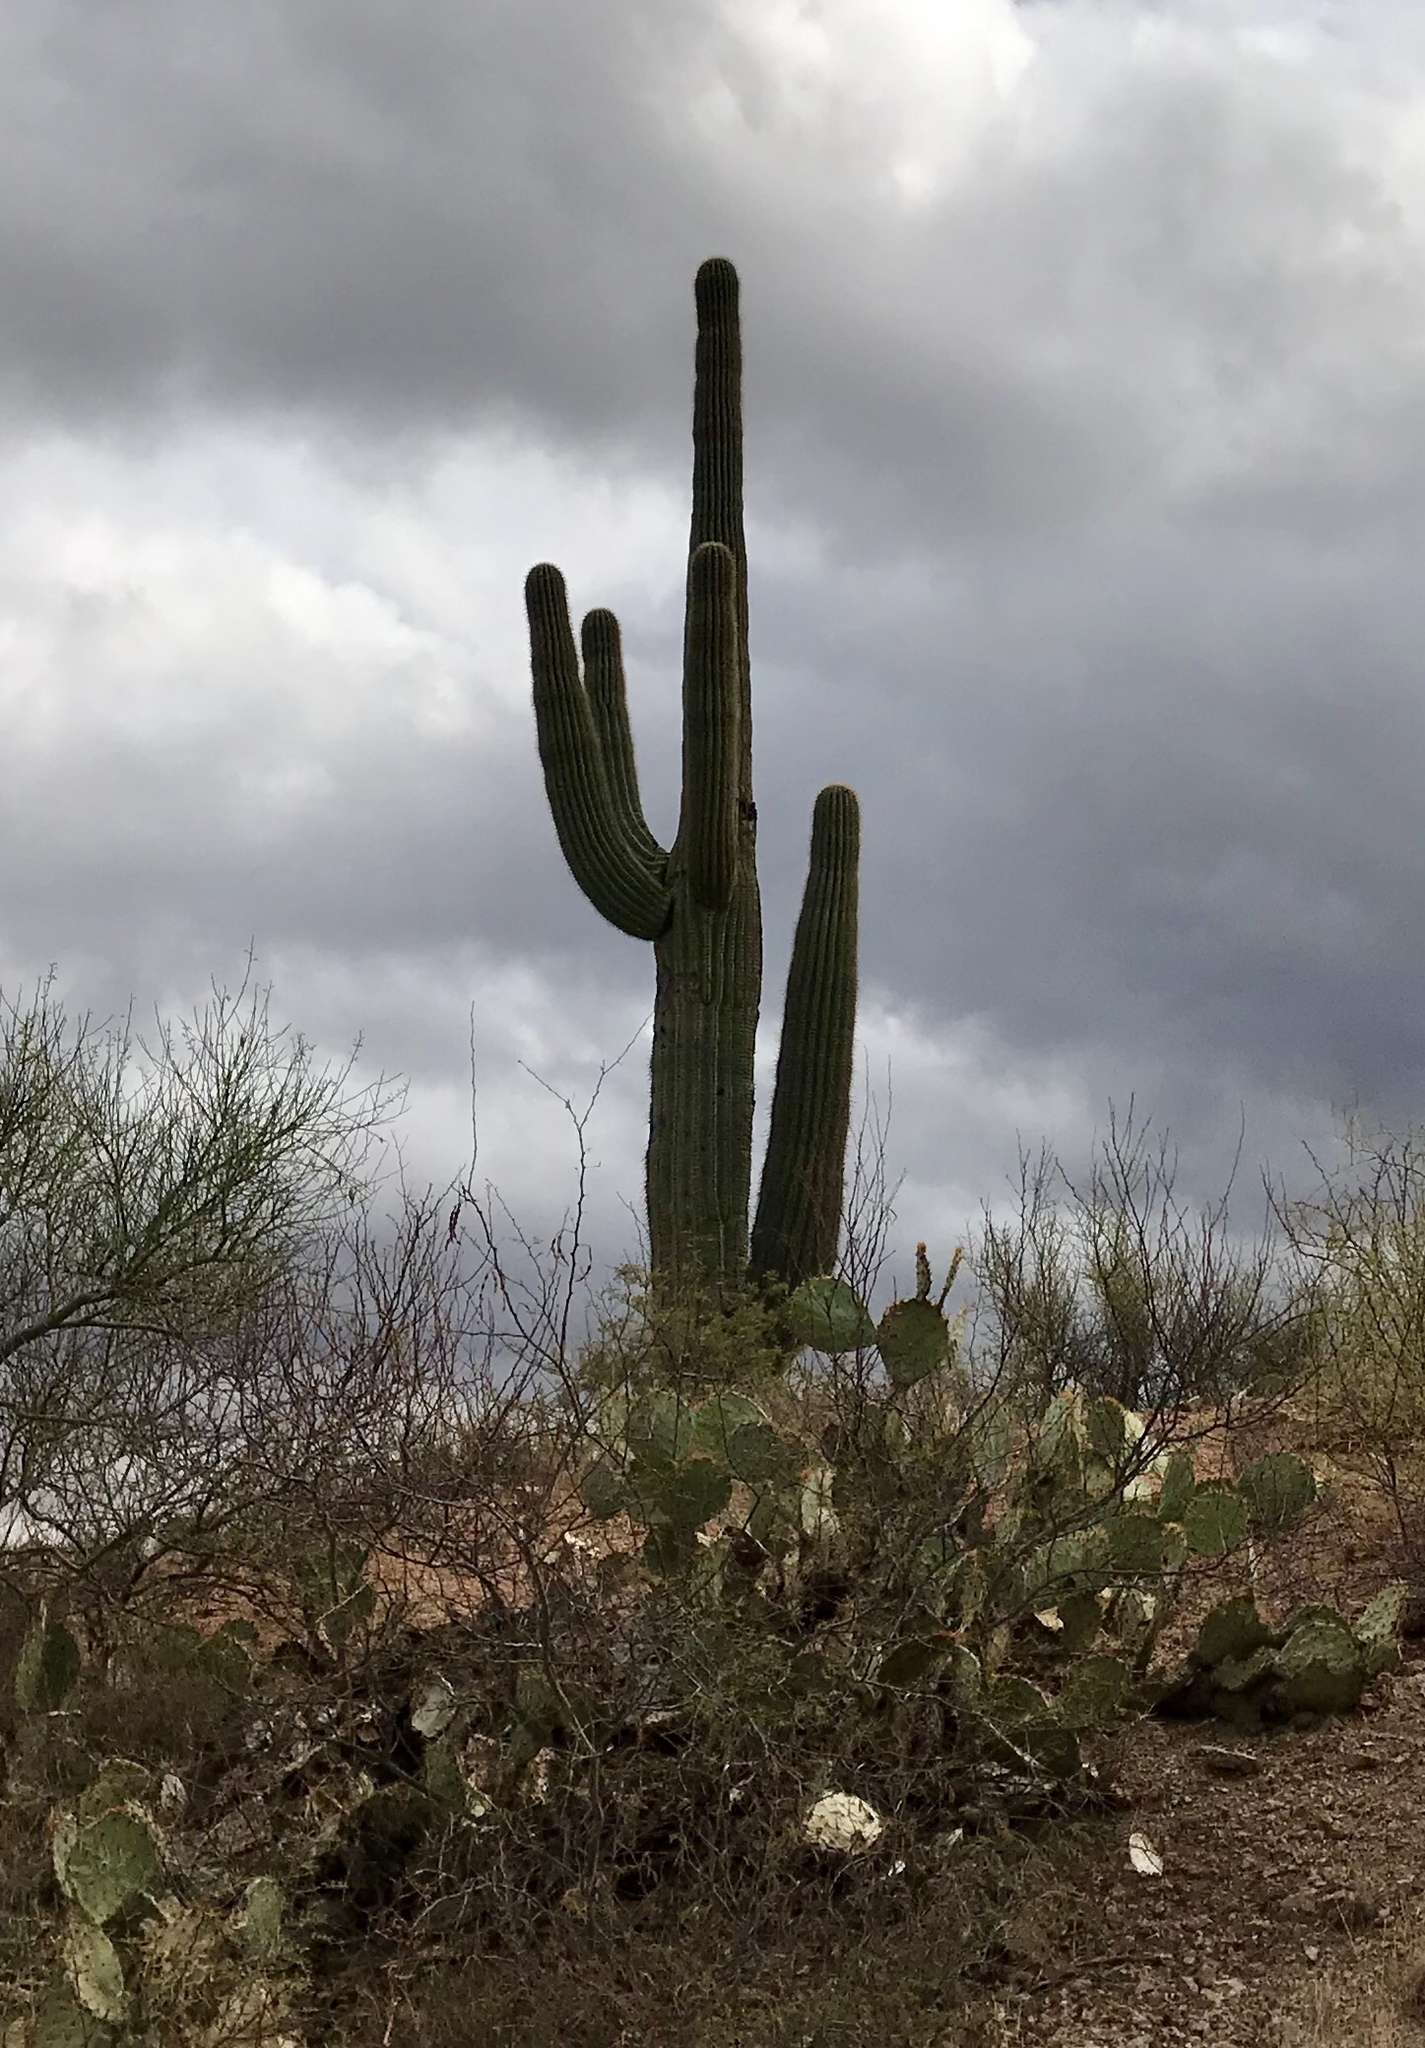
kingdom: Plantae
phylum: Tracheophyta
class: Magnoliopsida
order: Caryophyllales
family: Cactaceae
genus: Carnegiea
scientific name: Carnegiea gigantea
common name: Saguaro
